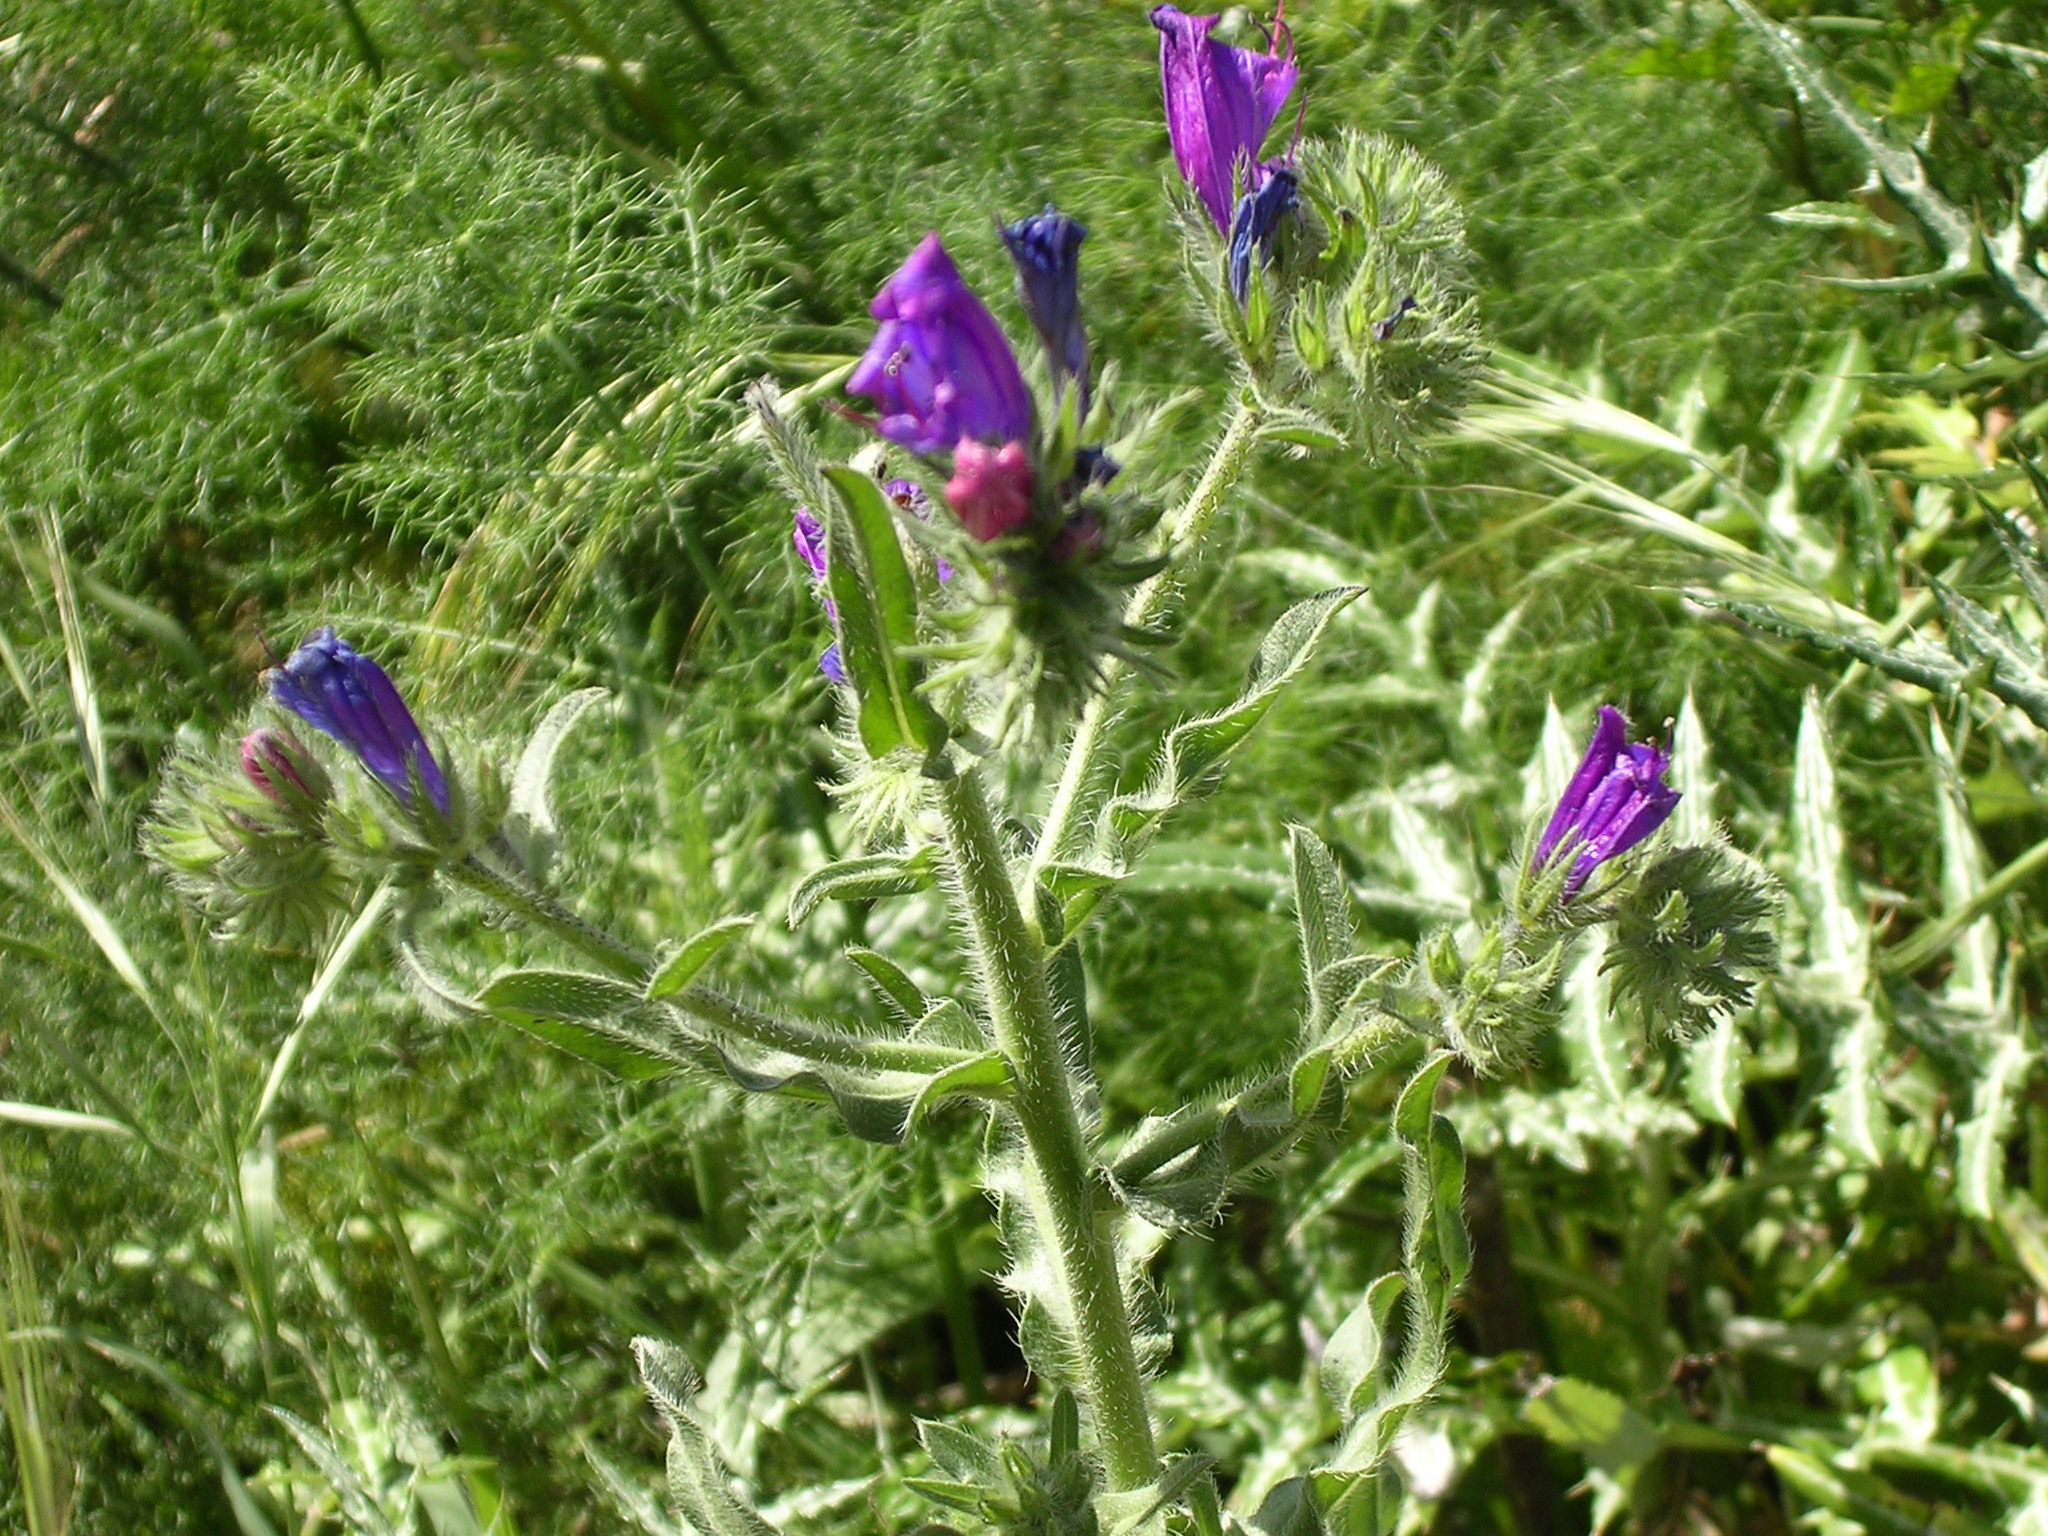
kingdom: Plantae
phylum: Tracheophyta
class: Magnoliopsida
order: Boraginales
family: Boraginaceae
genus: Echium
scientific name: Echium plantagineum
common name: Purple viper's-bugloss
